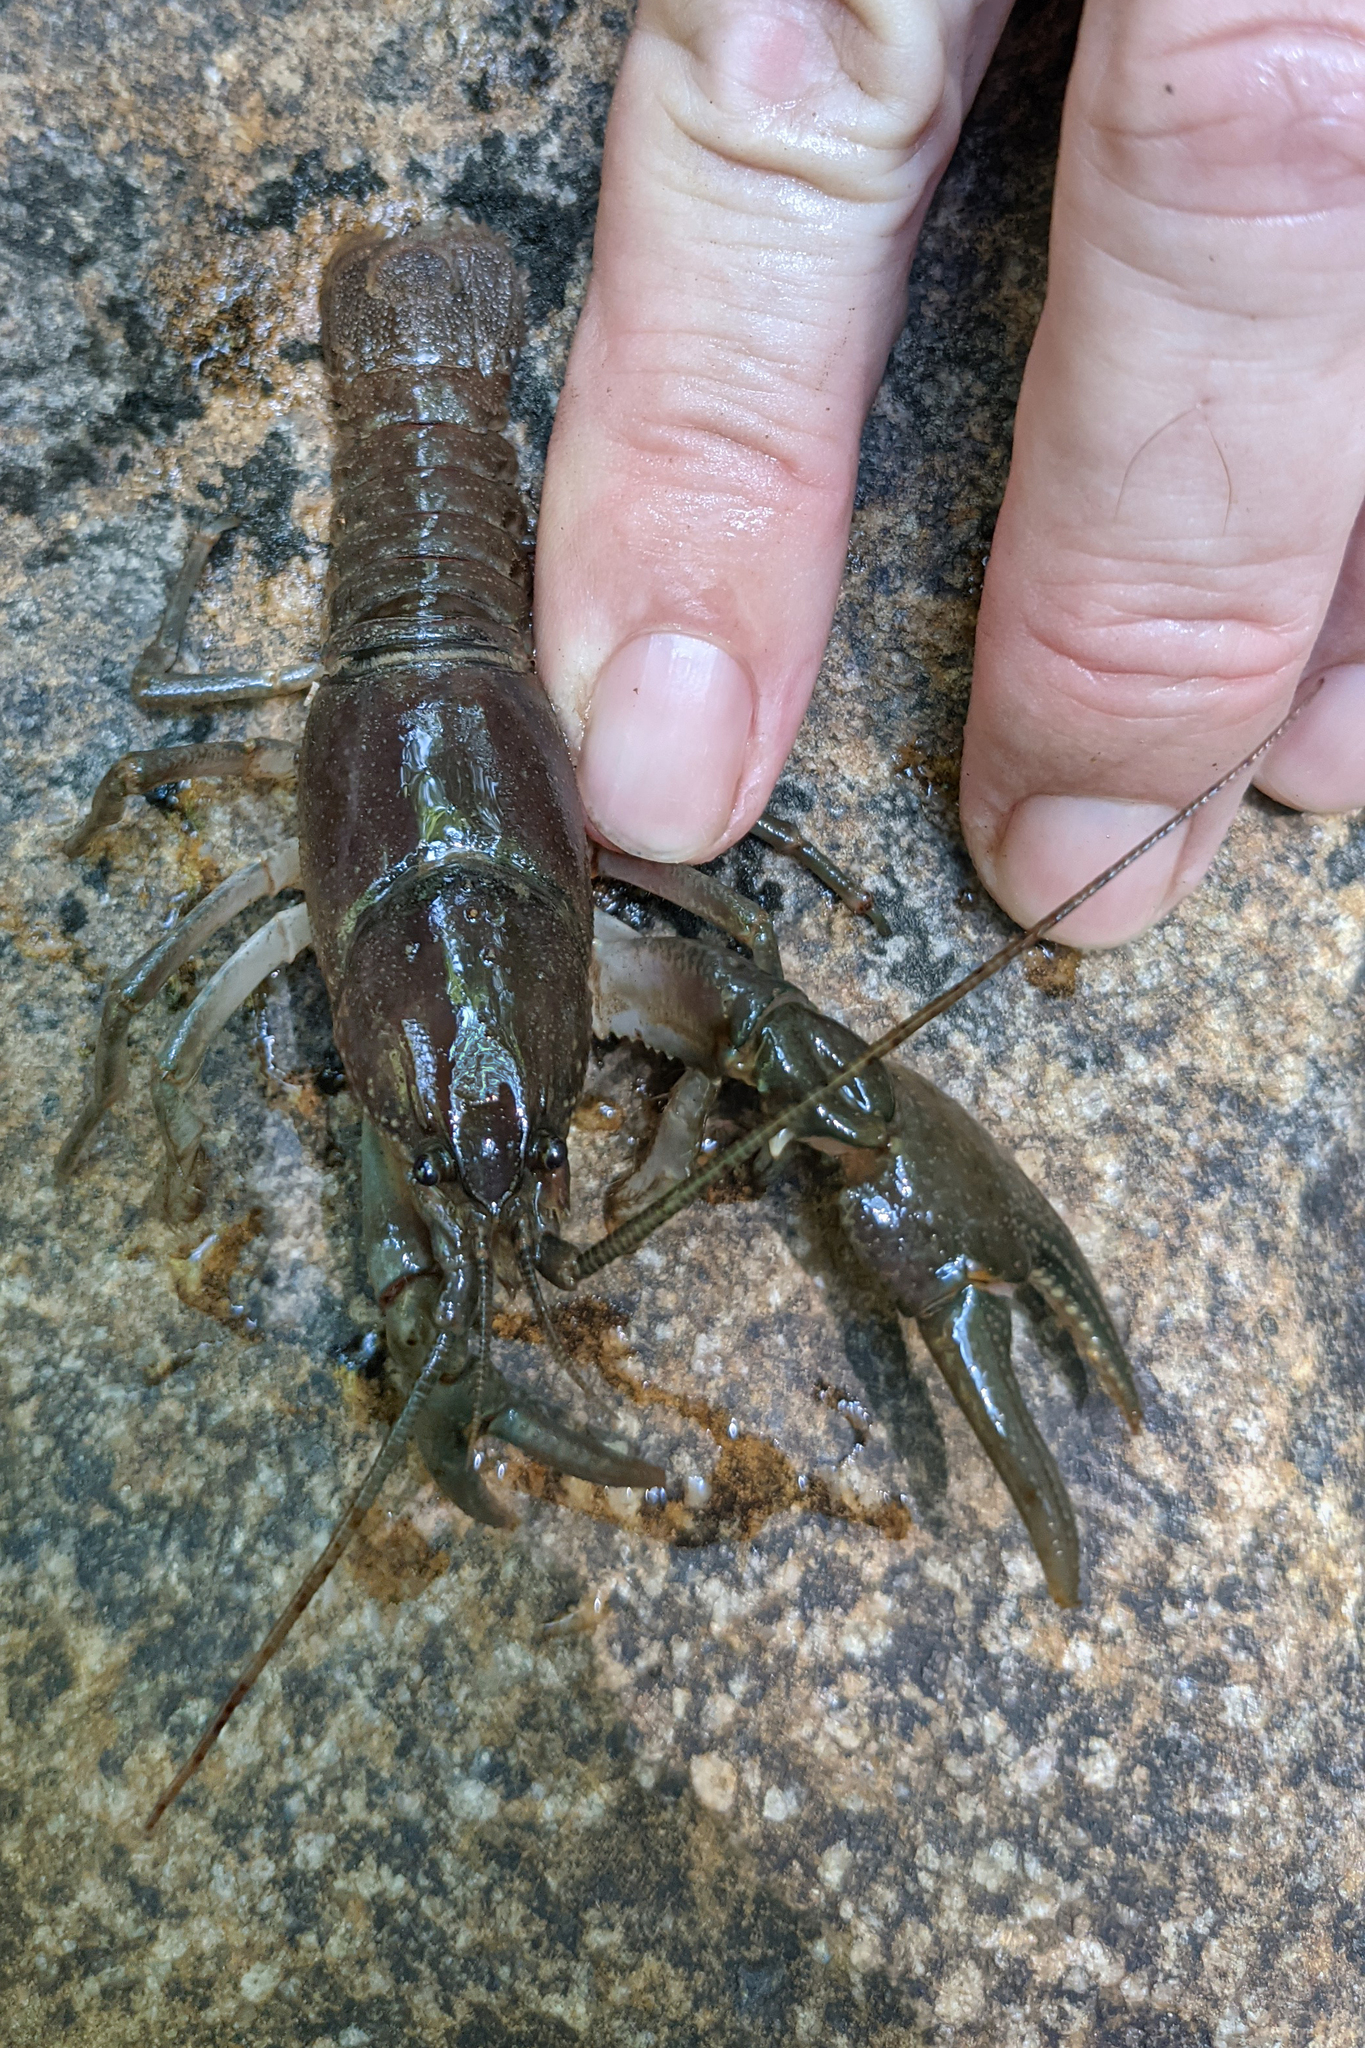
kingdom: Animalia
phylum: Arthropoda
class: Malacostraca
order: Decapoda
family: Cambaridae
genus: Cambarus
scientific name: Cambarus bartonii
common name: Appalachian brook crayfish
